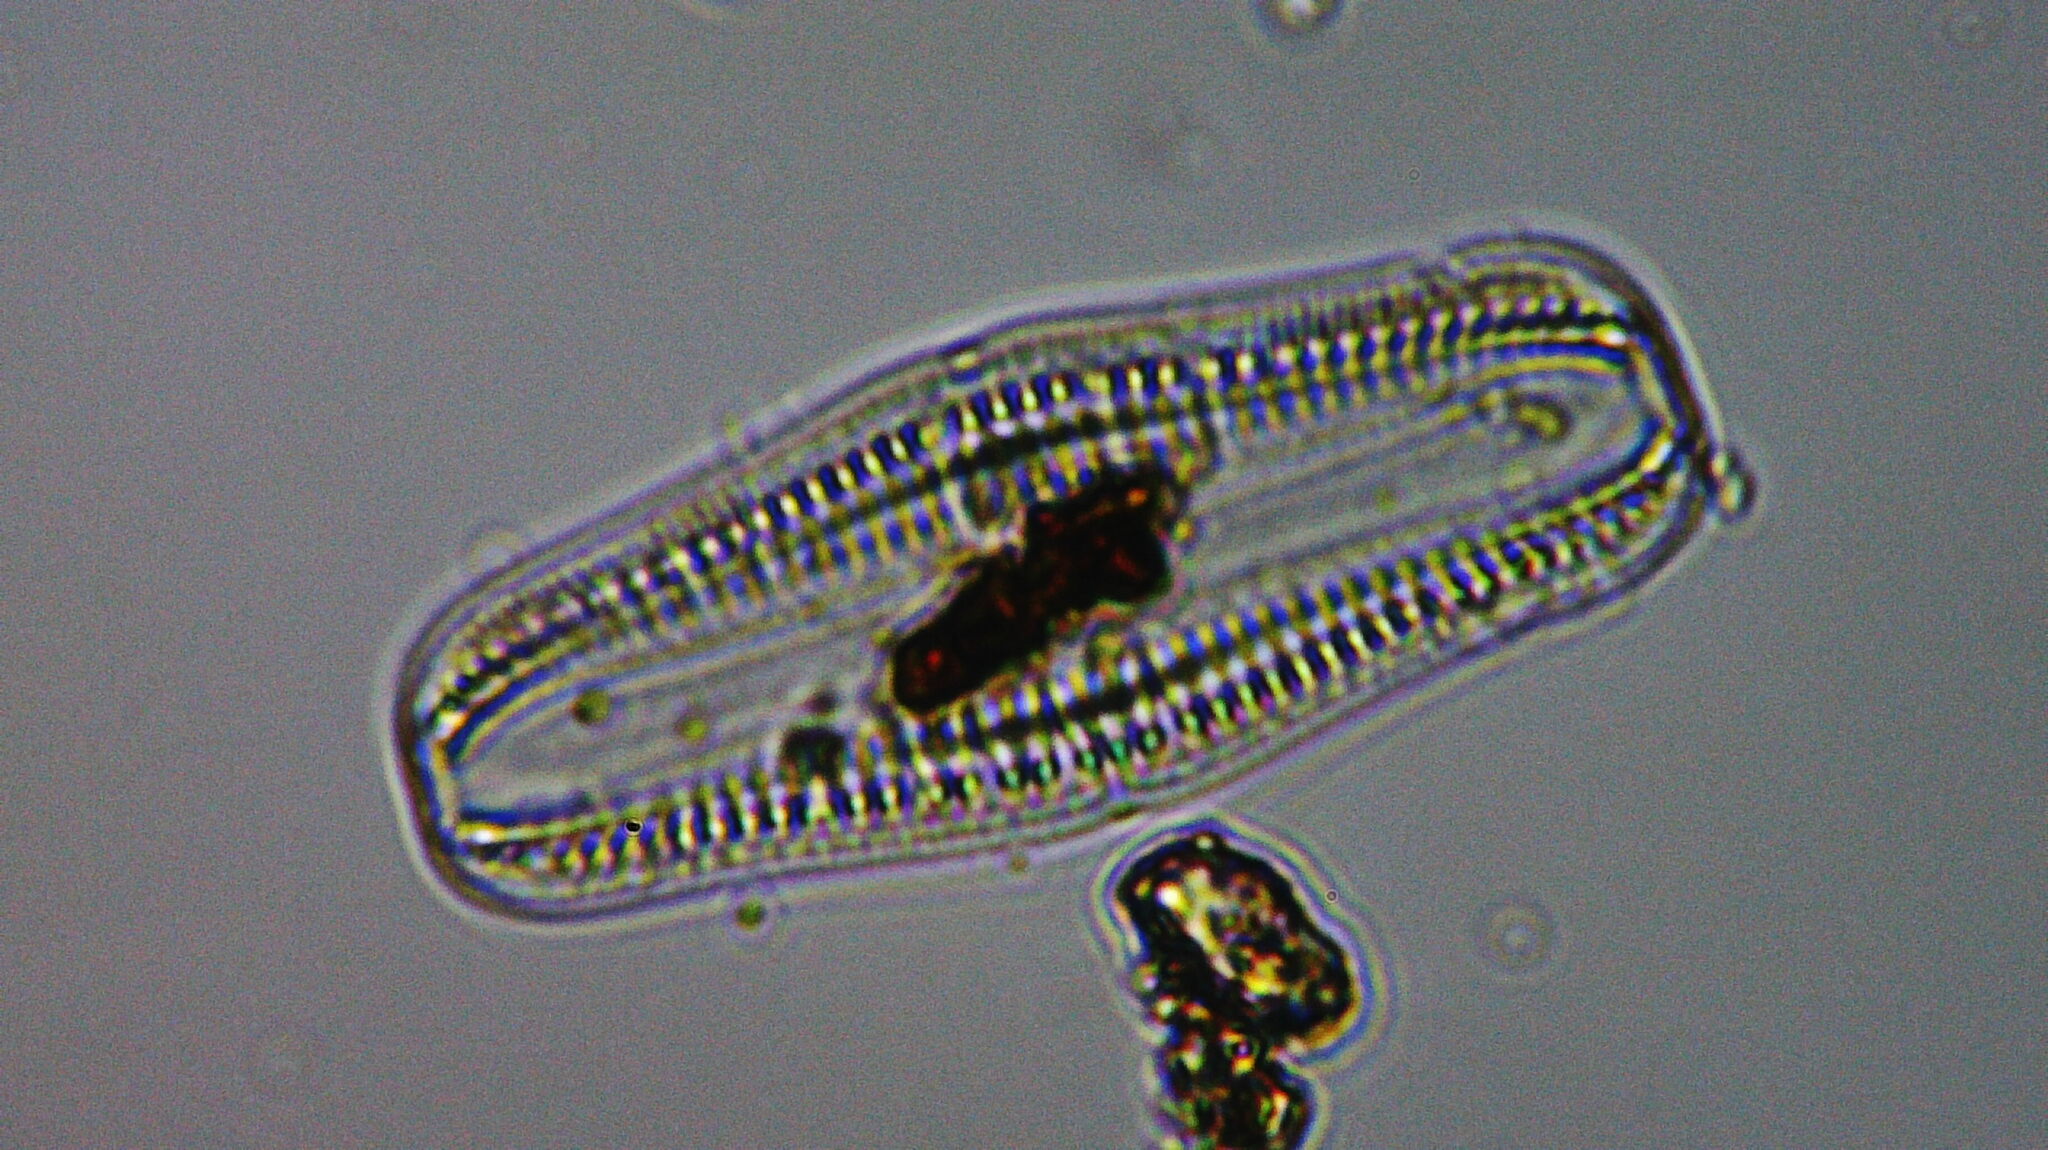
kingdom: Chromista
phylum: Ochrophyta
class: Bacillariophyceae
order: Rhopalodiales
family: Rhopalodiaceae
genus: Epithemia
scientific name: Epithemia gibba
